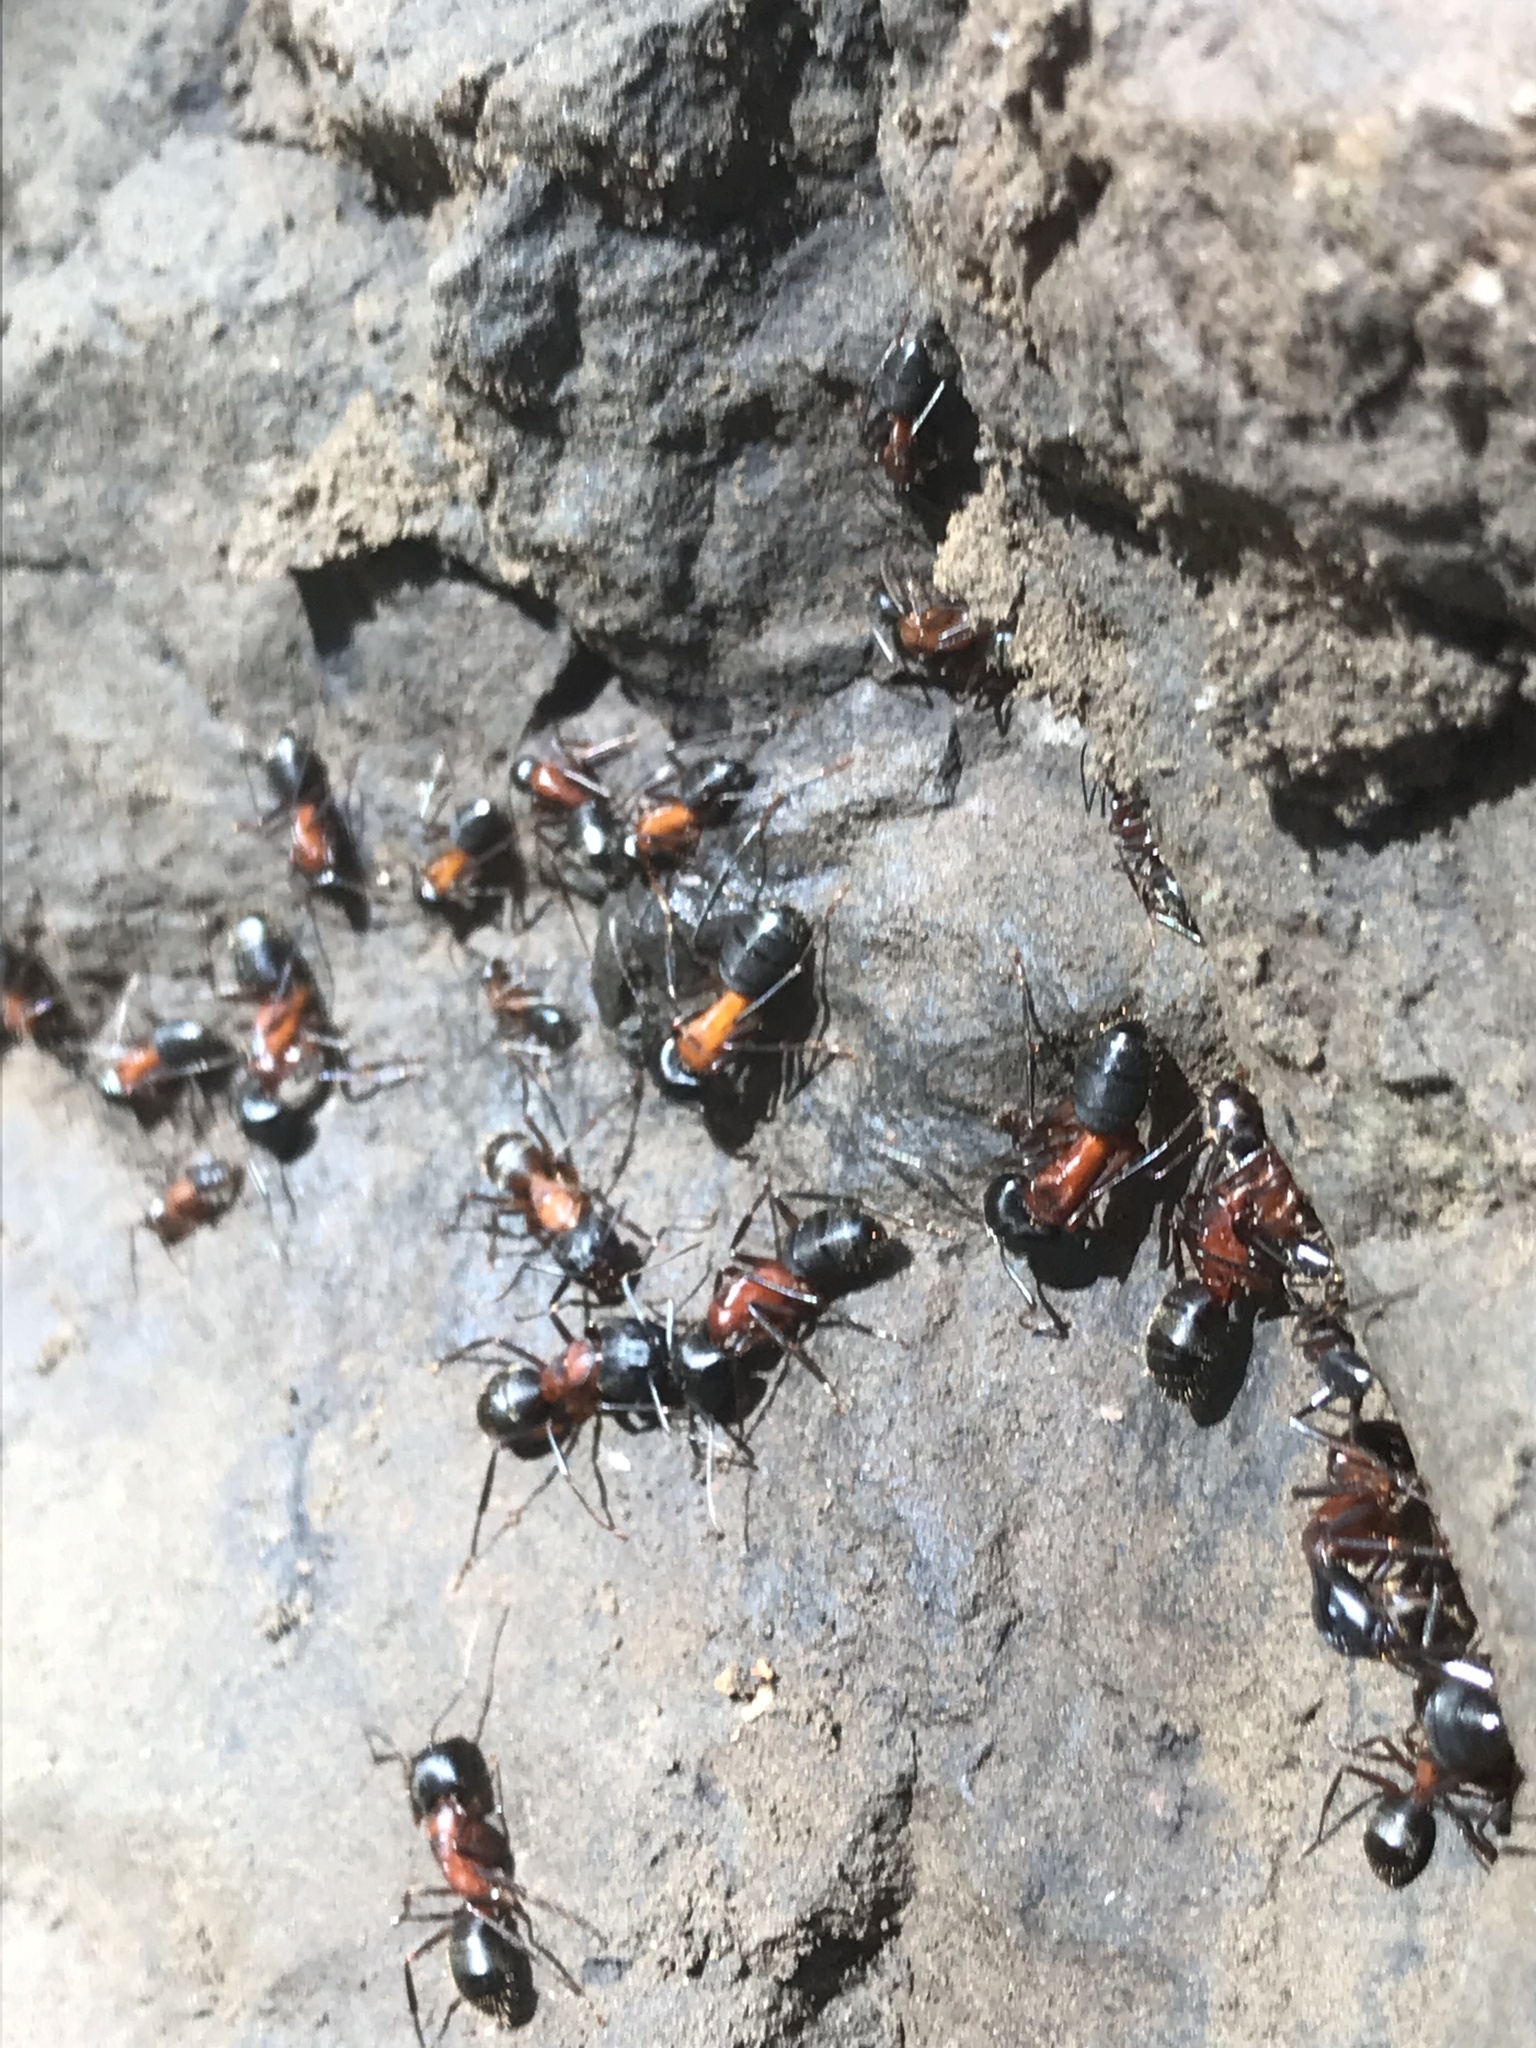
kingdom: Animalia
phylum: Arthropoda
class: Insecta
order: Hymenoptera
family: Formicidae
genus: Camponotus
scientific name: Camponotus vicinus
